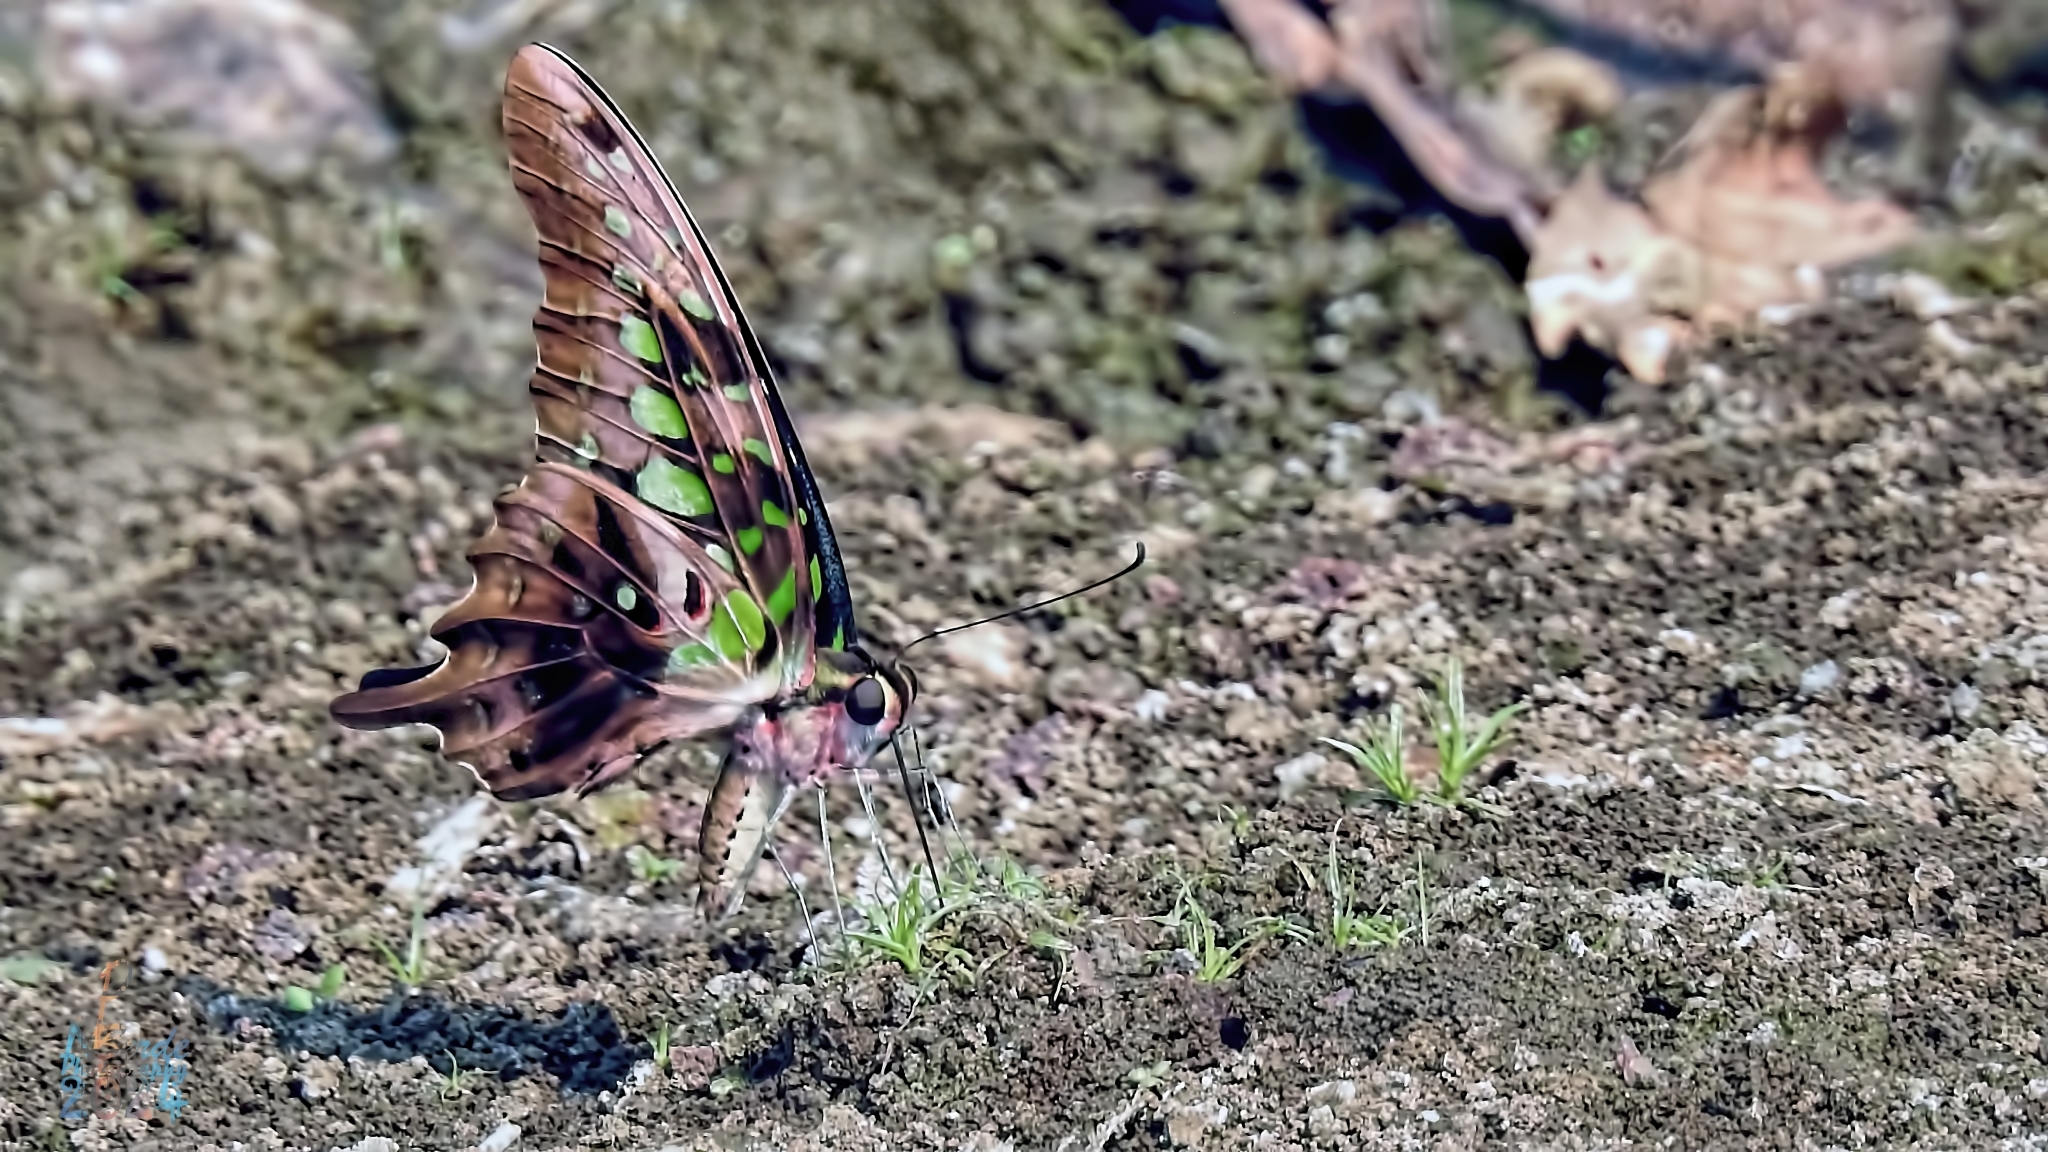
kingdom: Animalia
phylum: Arthropoda
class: Insecta
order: Lepidoptera
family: Papilionidae
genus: Graphium
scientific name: Graphium agamemnon
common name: Tailed jay
